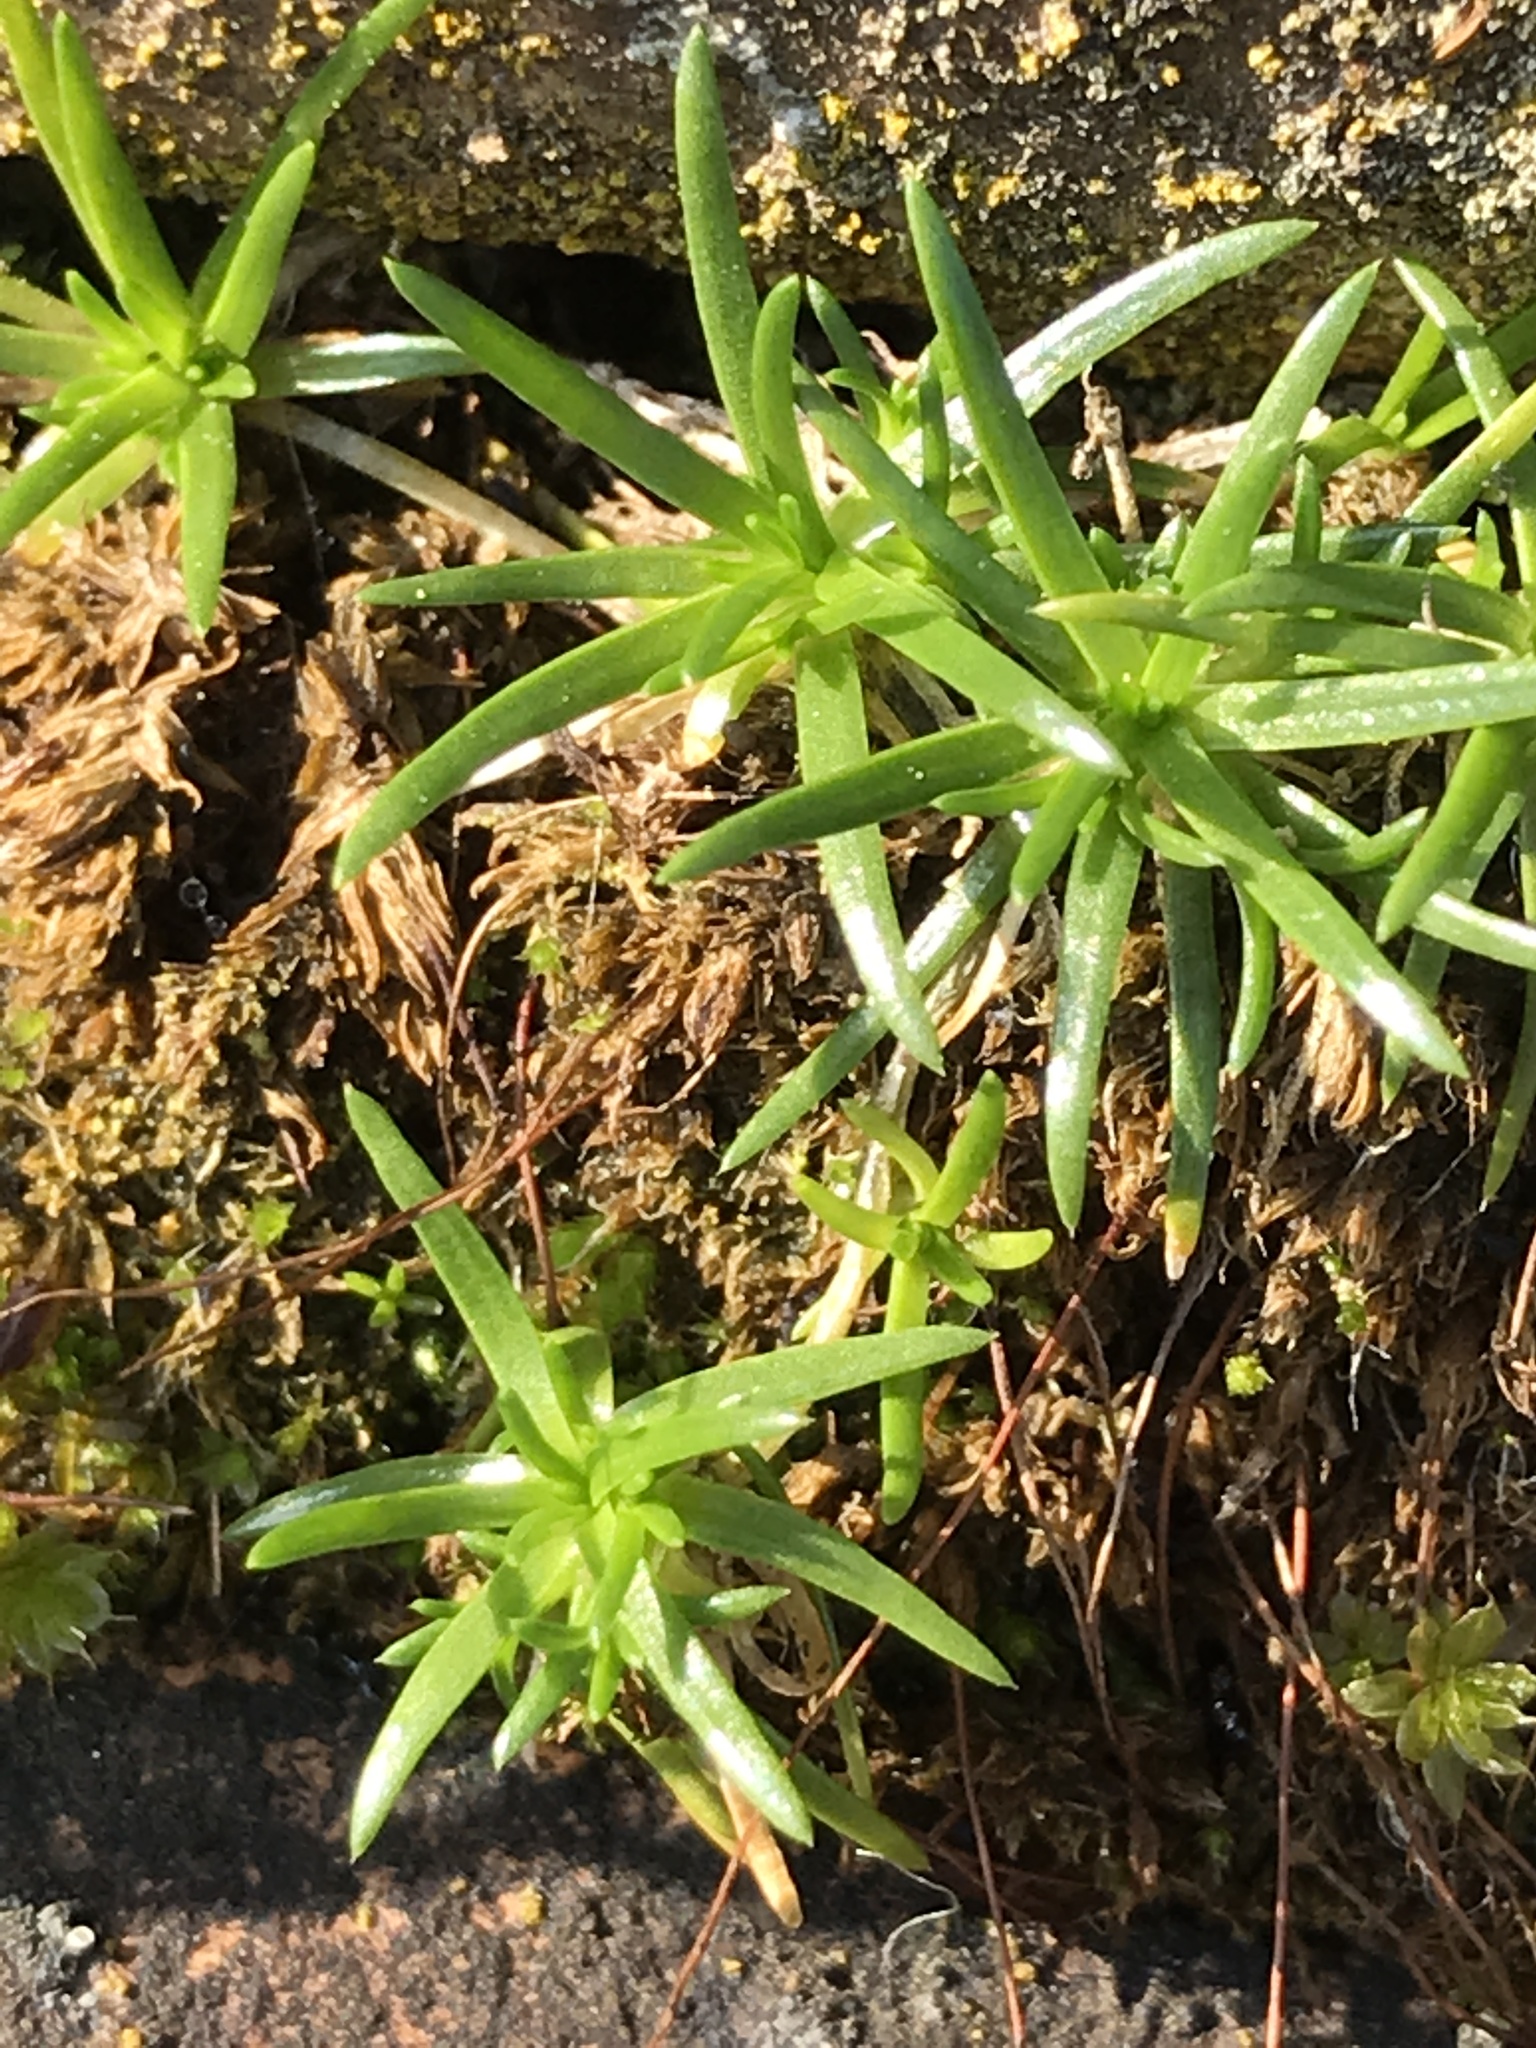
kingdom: Plantae
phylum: Tracheophyta
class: Magnoliopsida
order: Caryophyllales
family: Caryophyllaceae
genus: Sagina
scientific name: Sagina procumbens
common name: Procumbent pearlwort
